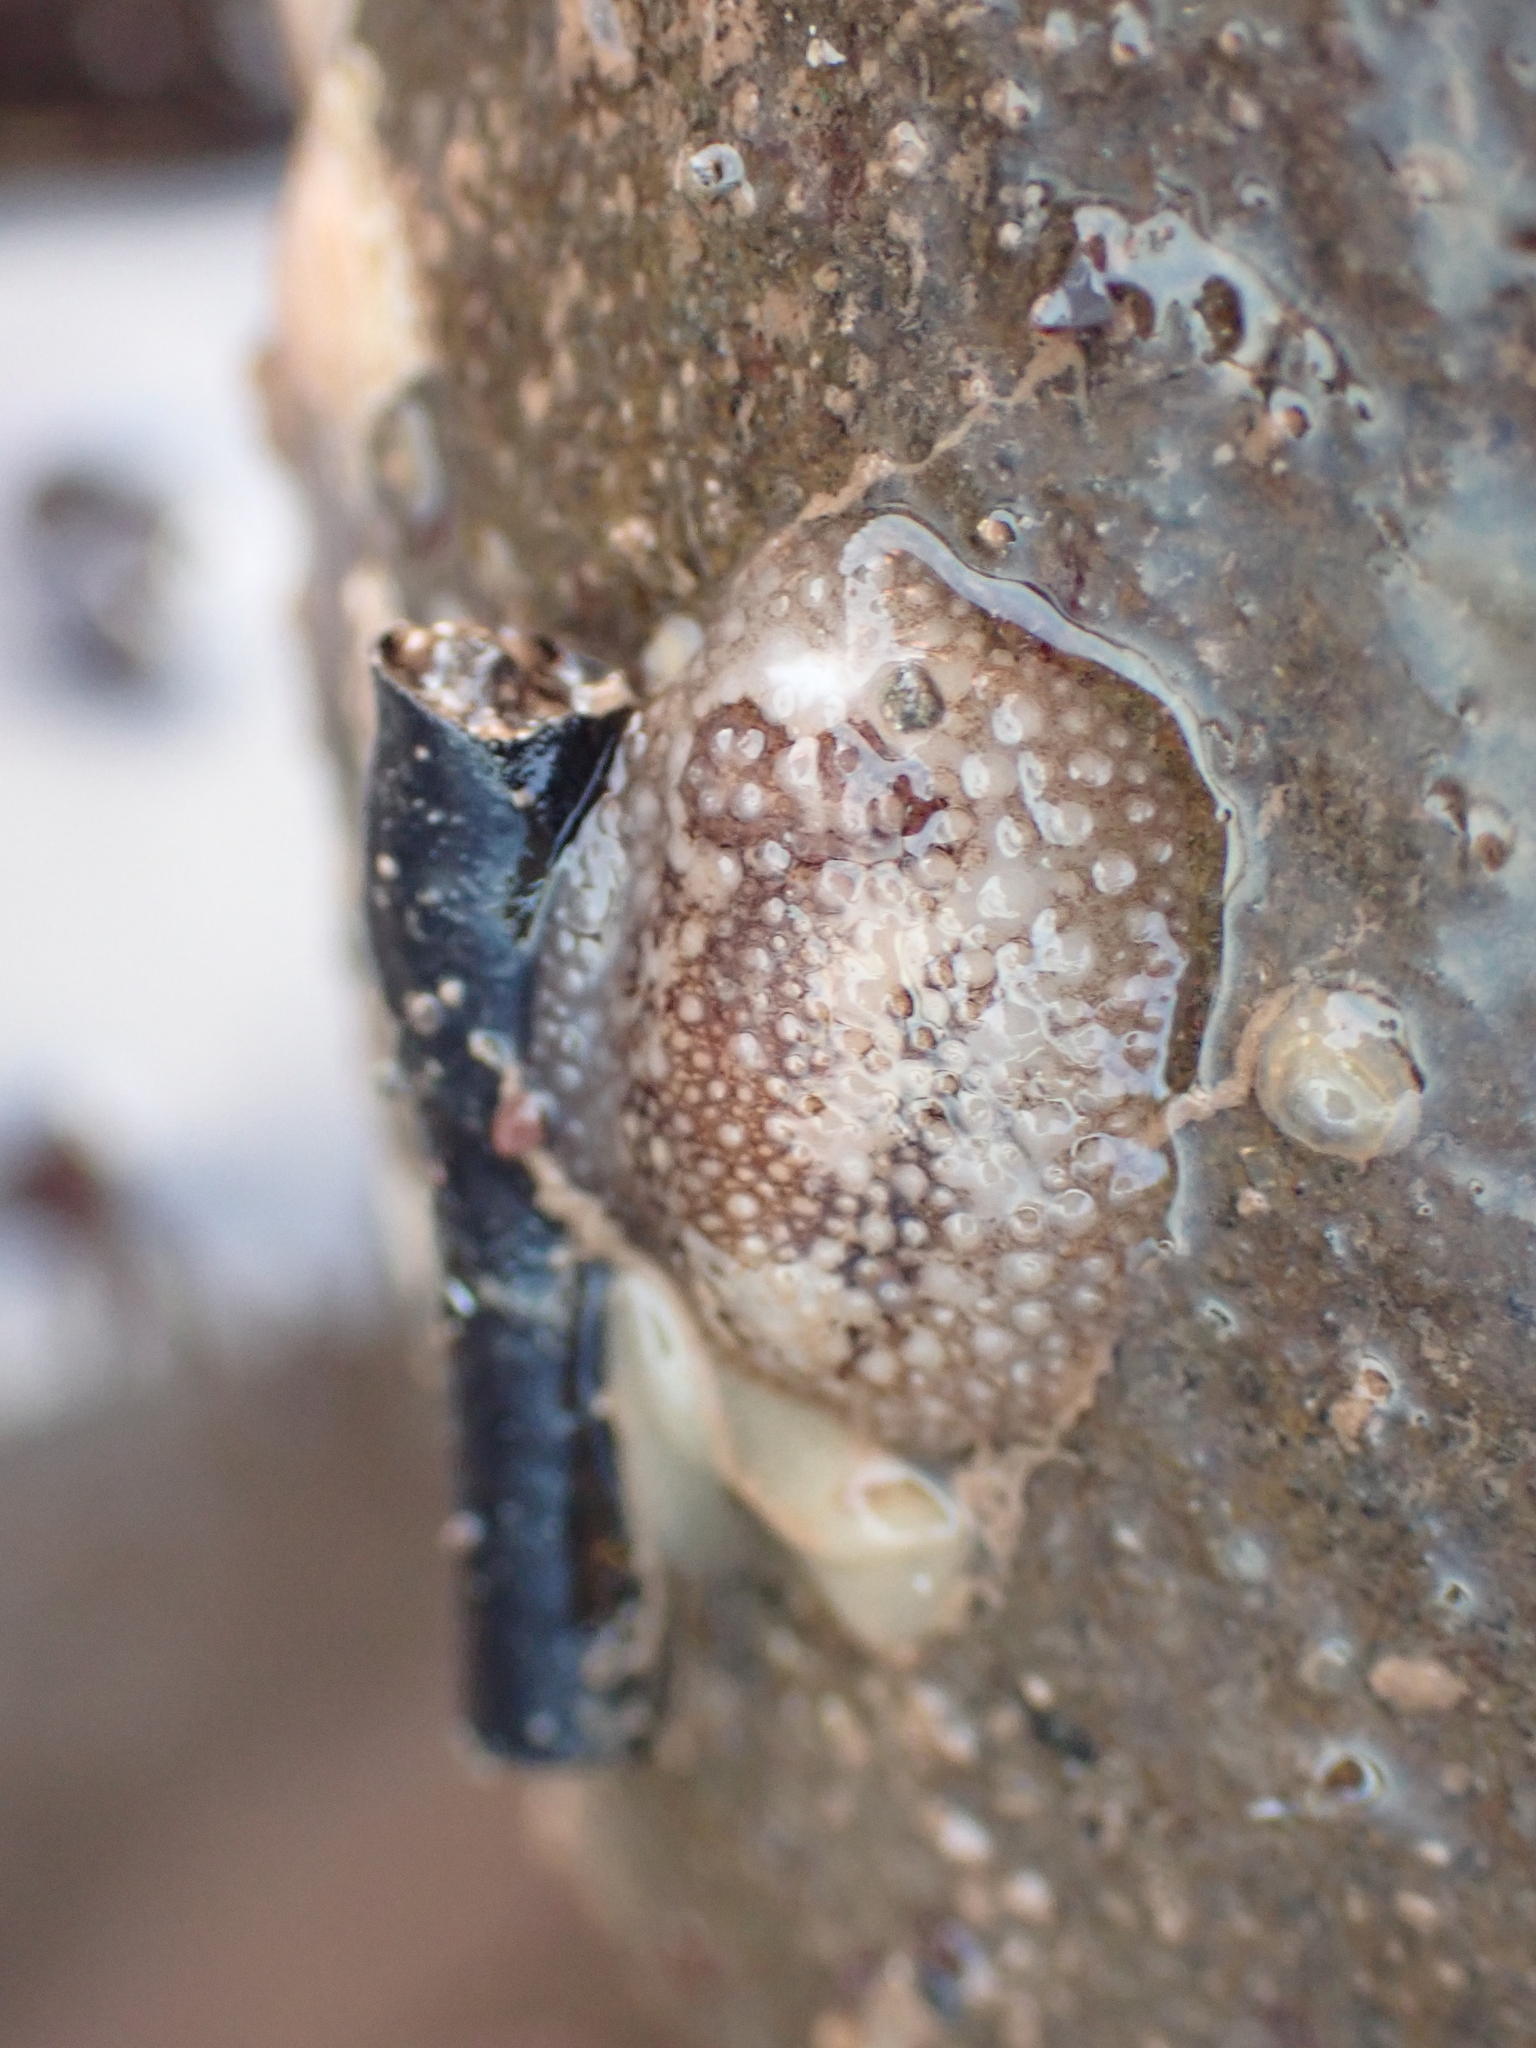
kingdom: Animalia
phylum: Mollusca
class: Gastropoda
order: Nudibranchia
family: Onchidorididae
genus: Onchidoris
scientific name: Onchidoris bilamellata
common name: Barnacle-eating onchidoris
